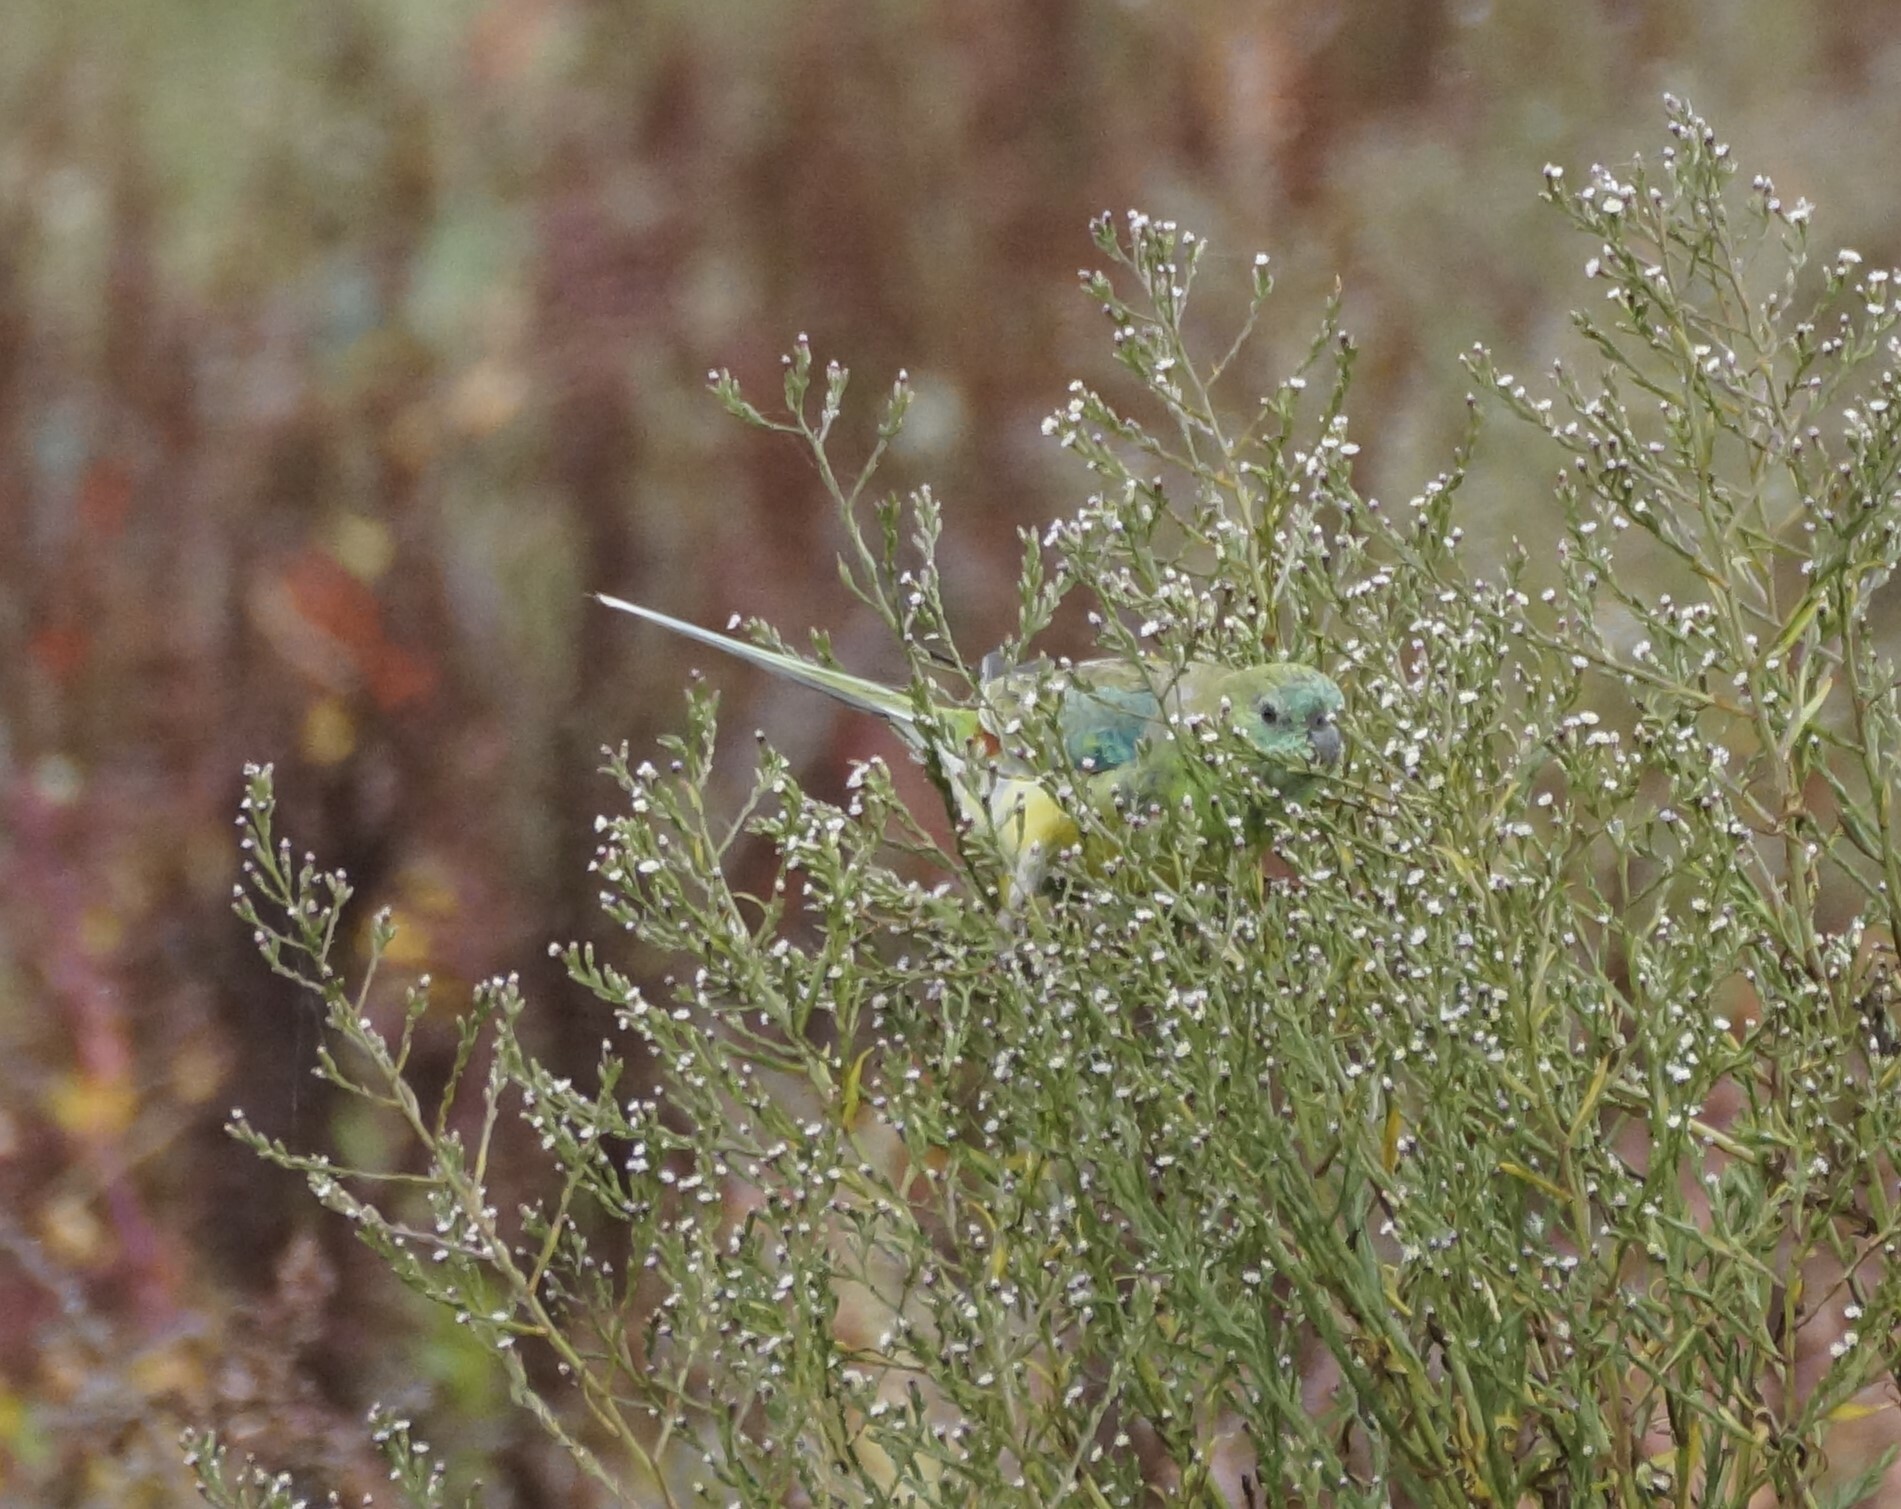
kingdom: Animalia
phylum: Chordata
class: Aves
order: Psittaciformes
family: Psittacidae
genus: Psephotus
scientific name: Psephotus haematonotus
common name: Red-rumped parrot
